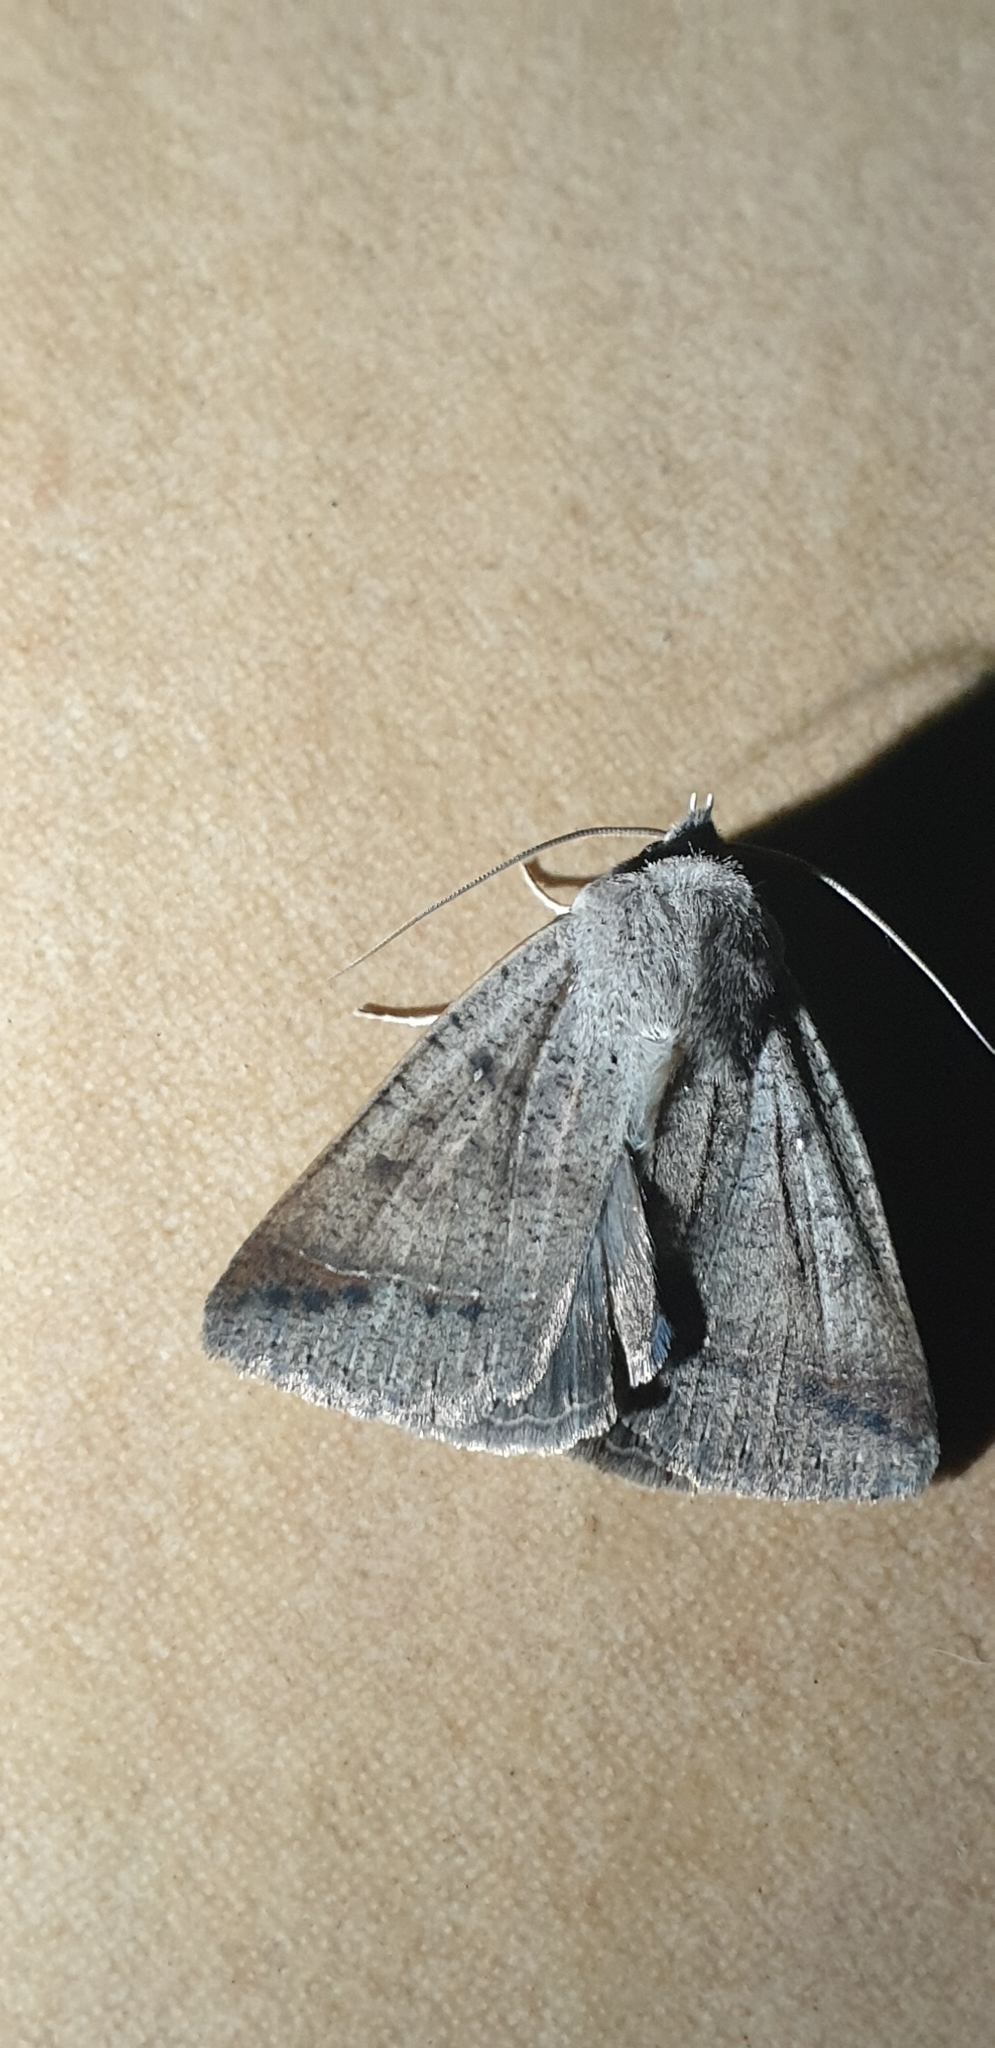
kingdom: Animalia
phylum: Arthropoda
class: Insecta
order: Lepidoptera
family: Erebidae
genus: Pantydia
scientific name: Pantydia sparsa
